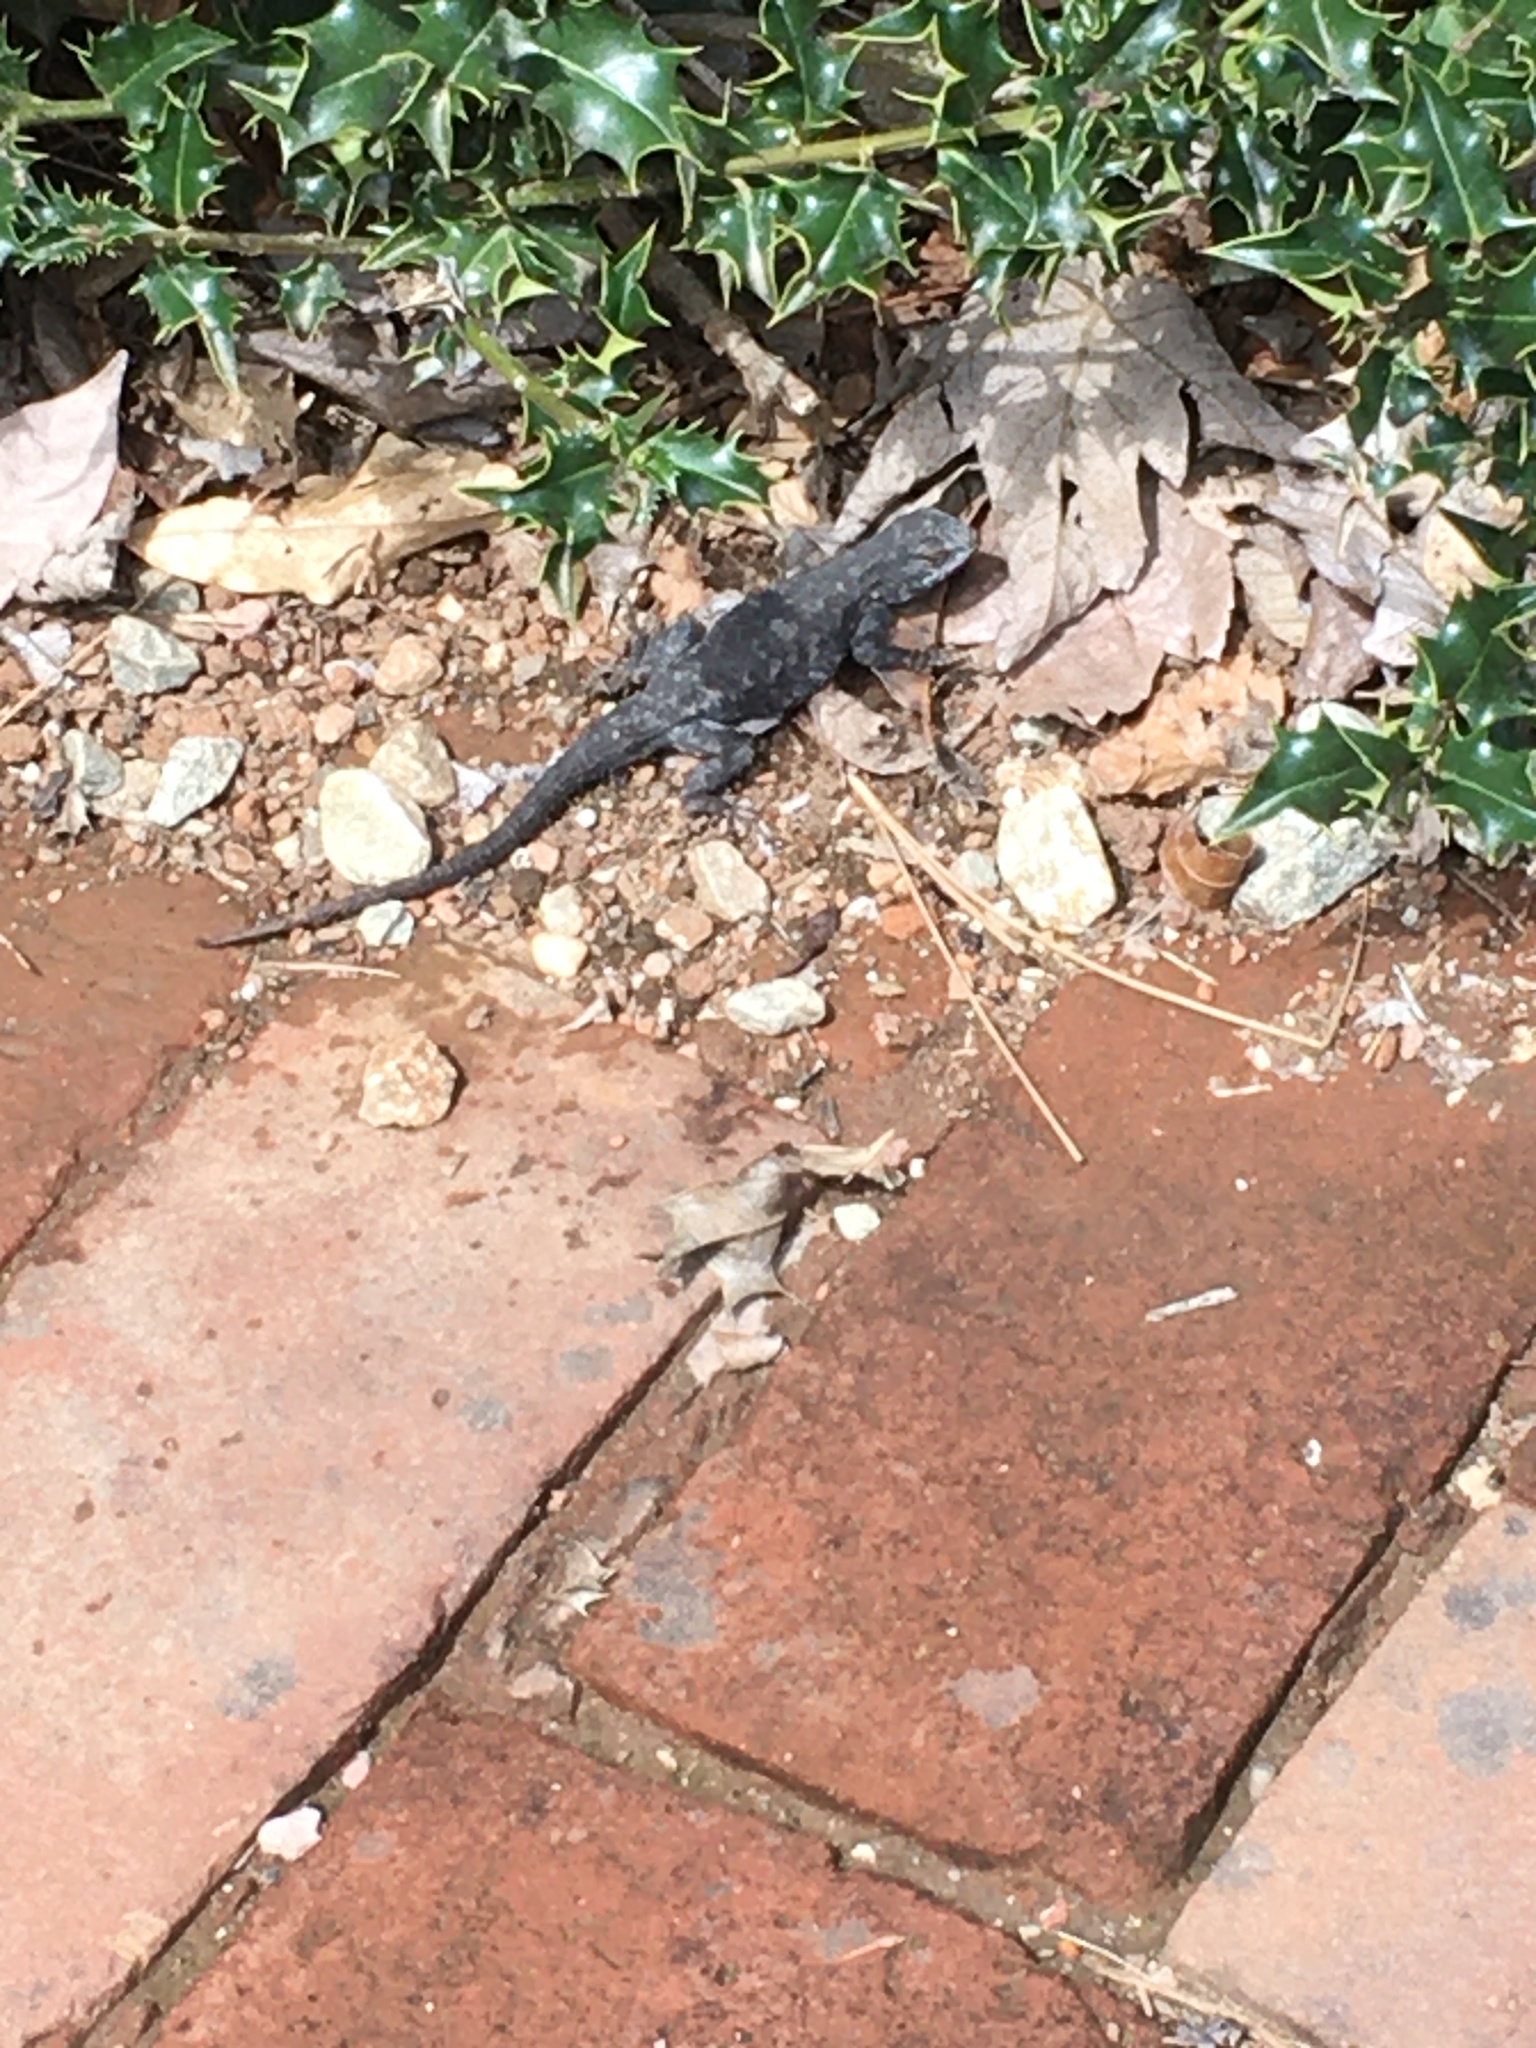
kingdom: Animalia
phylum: Chordata
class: Squamata
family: Phrynosomatidae
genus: Sceloporus
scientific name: Sceloporus occidentalis
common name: Western fence lizard
